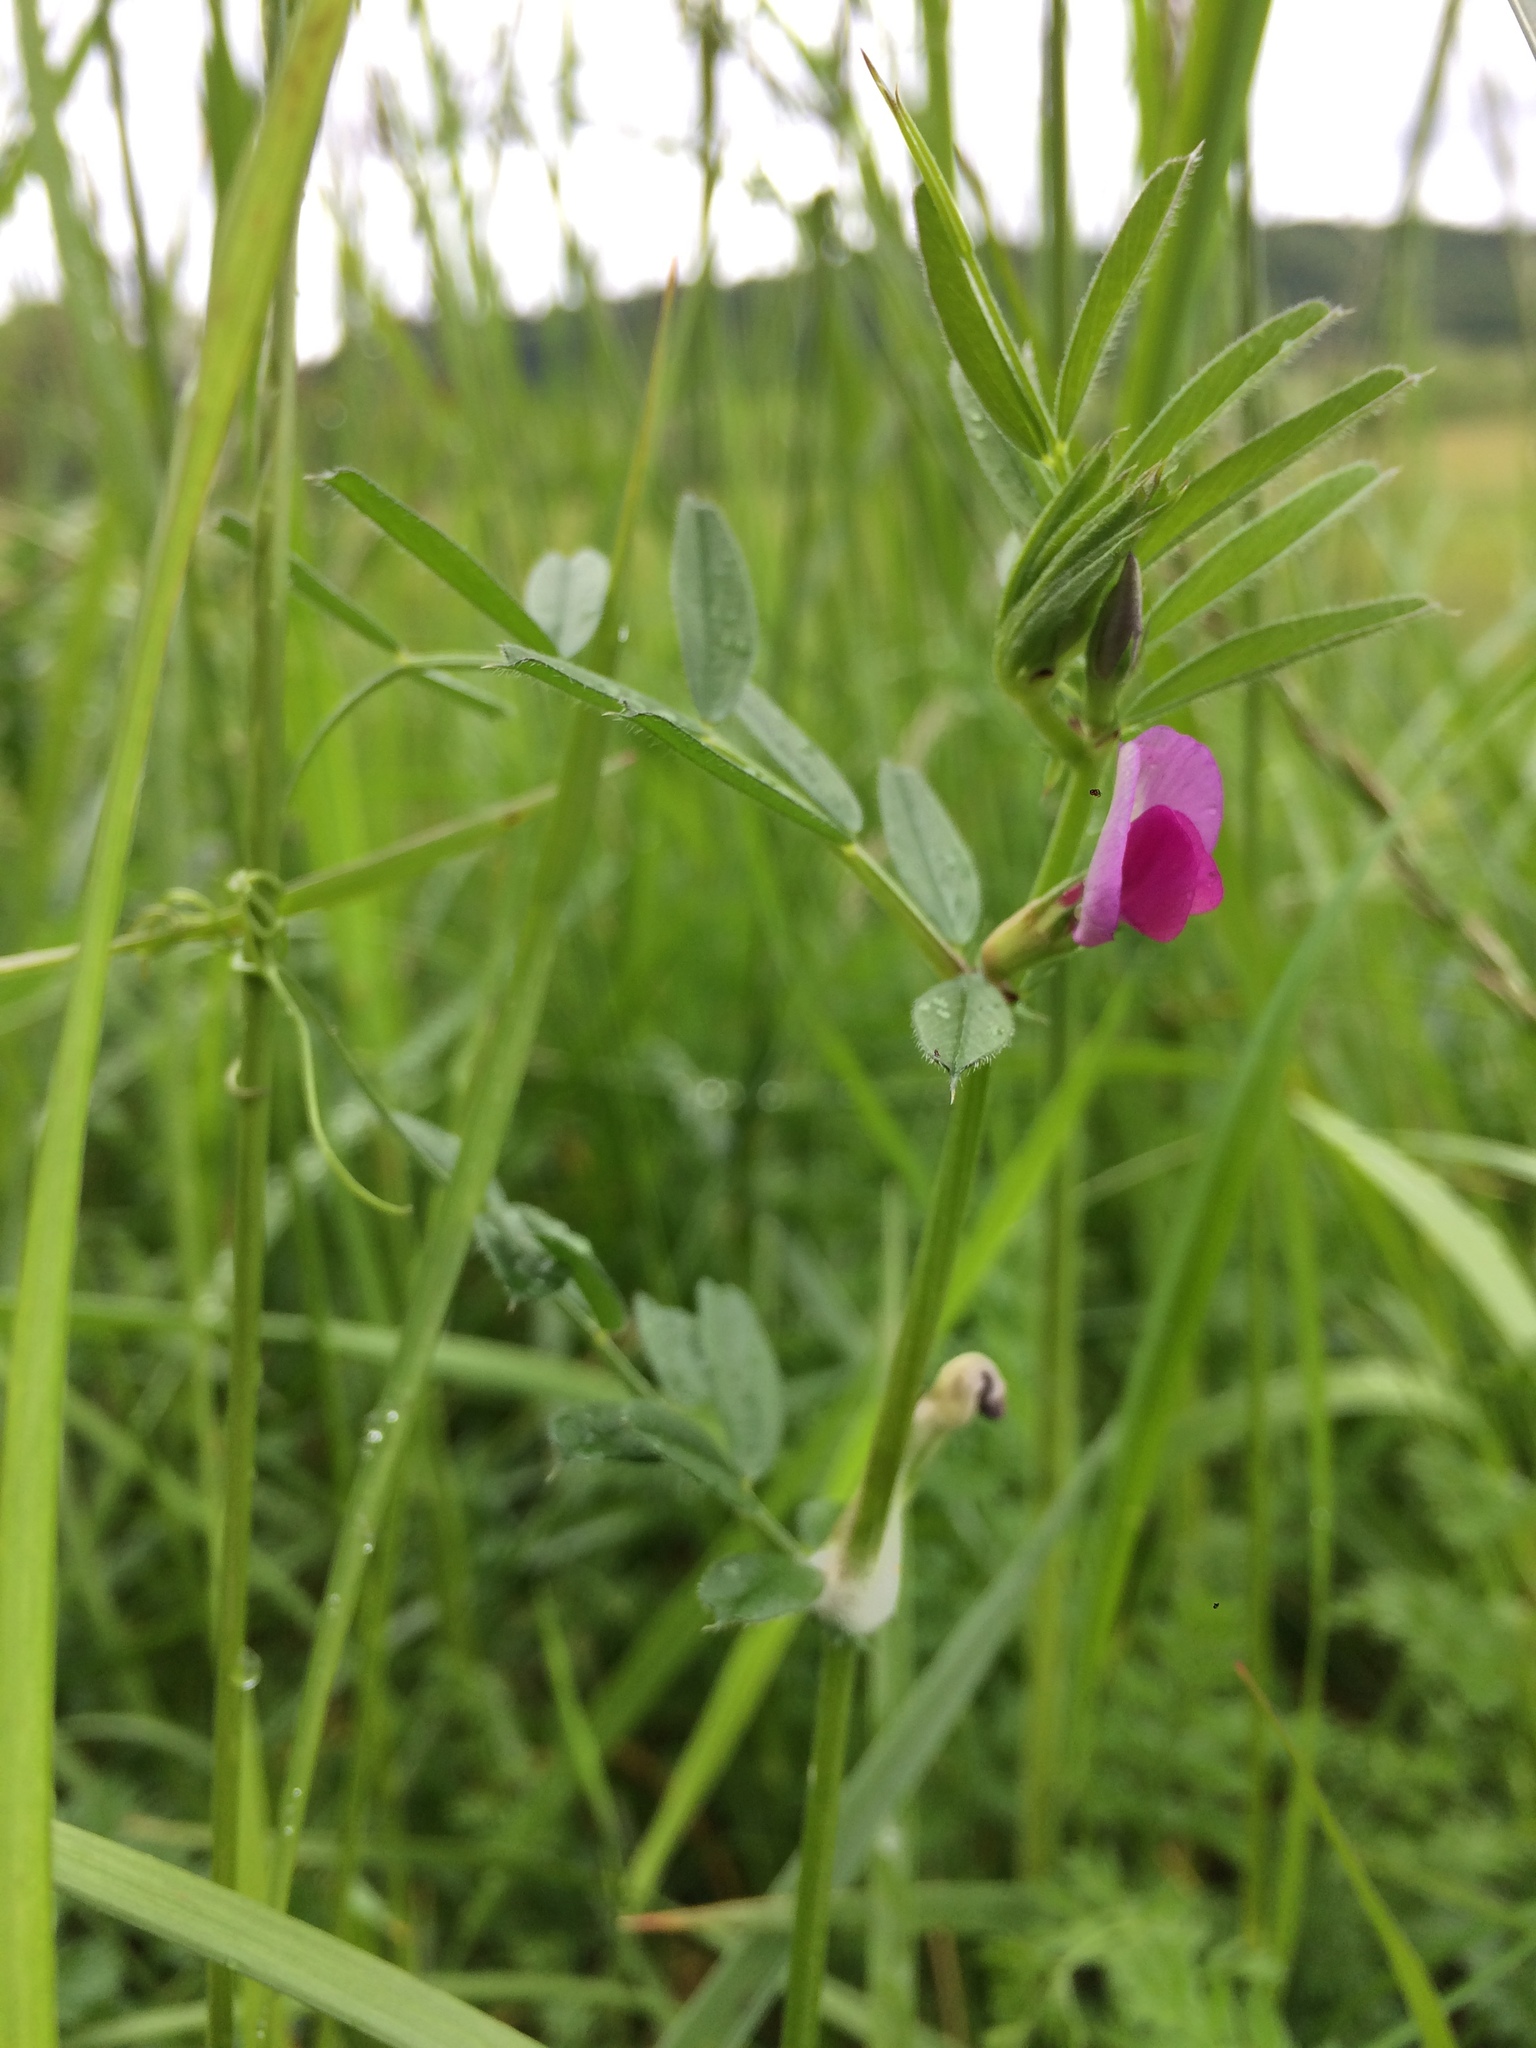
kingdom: Plantae
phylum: Tracheophyta
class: Magnoliopsida
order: Fabales
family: Fabaceae
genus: Vicia
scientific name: Vicia sativa
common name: Garden vetch
